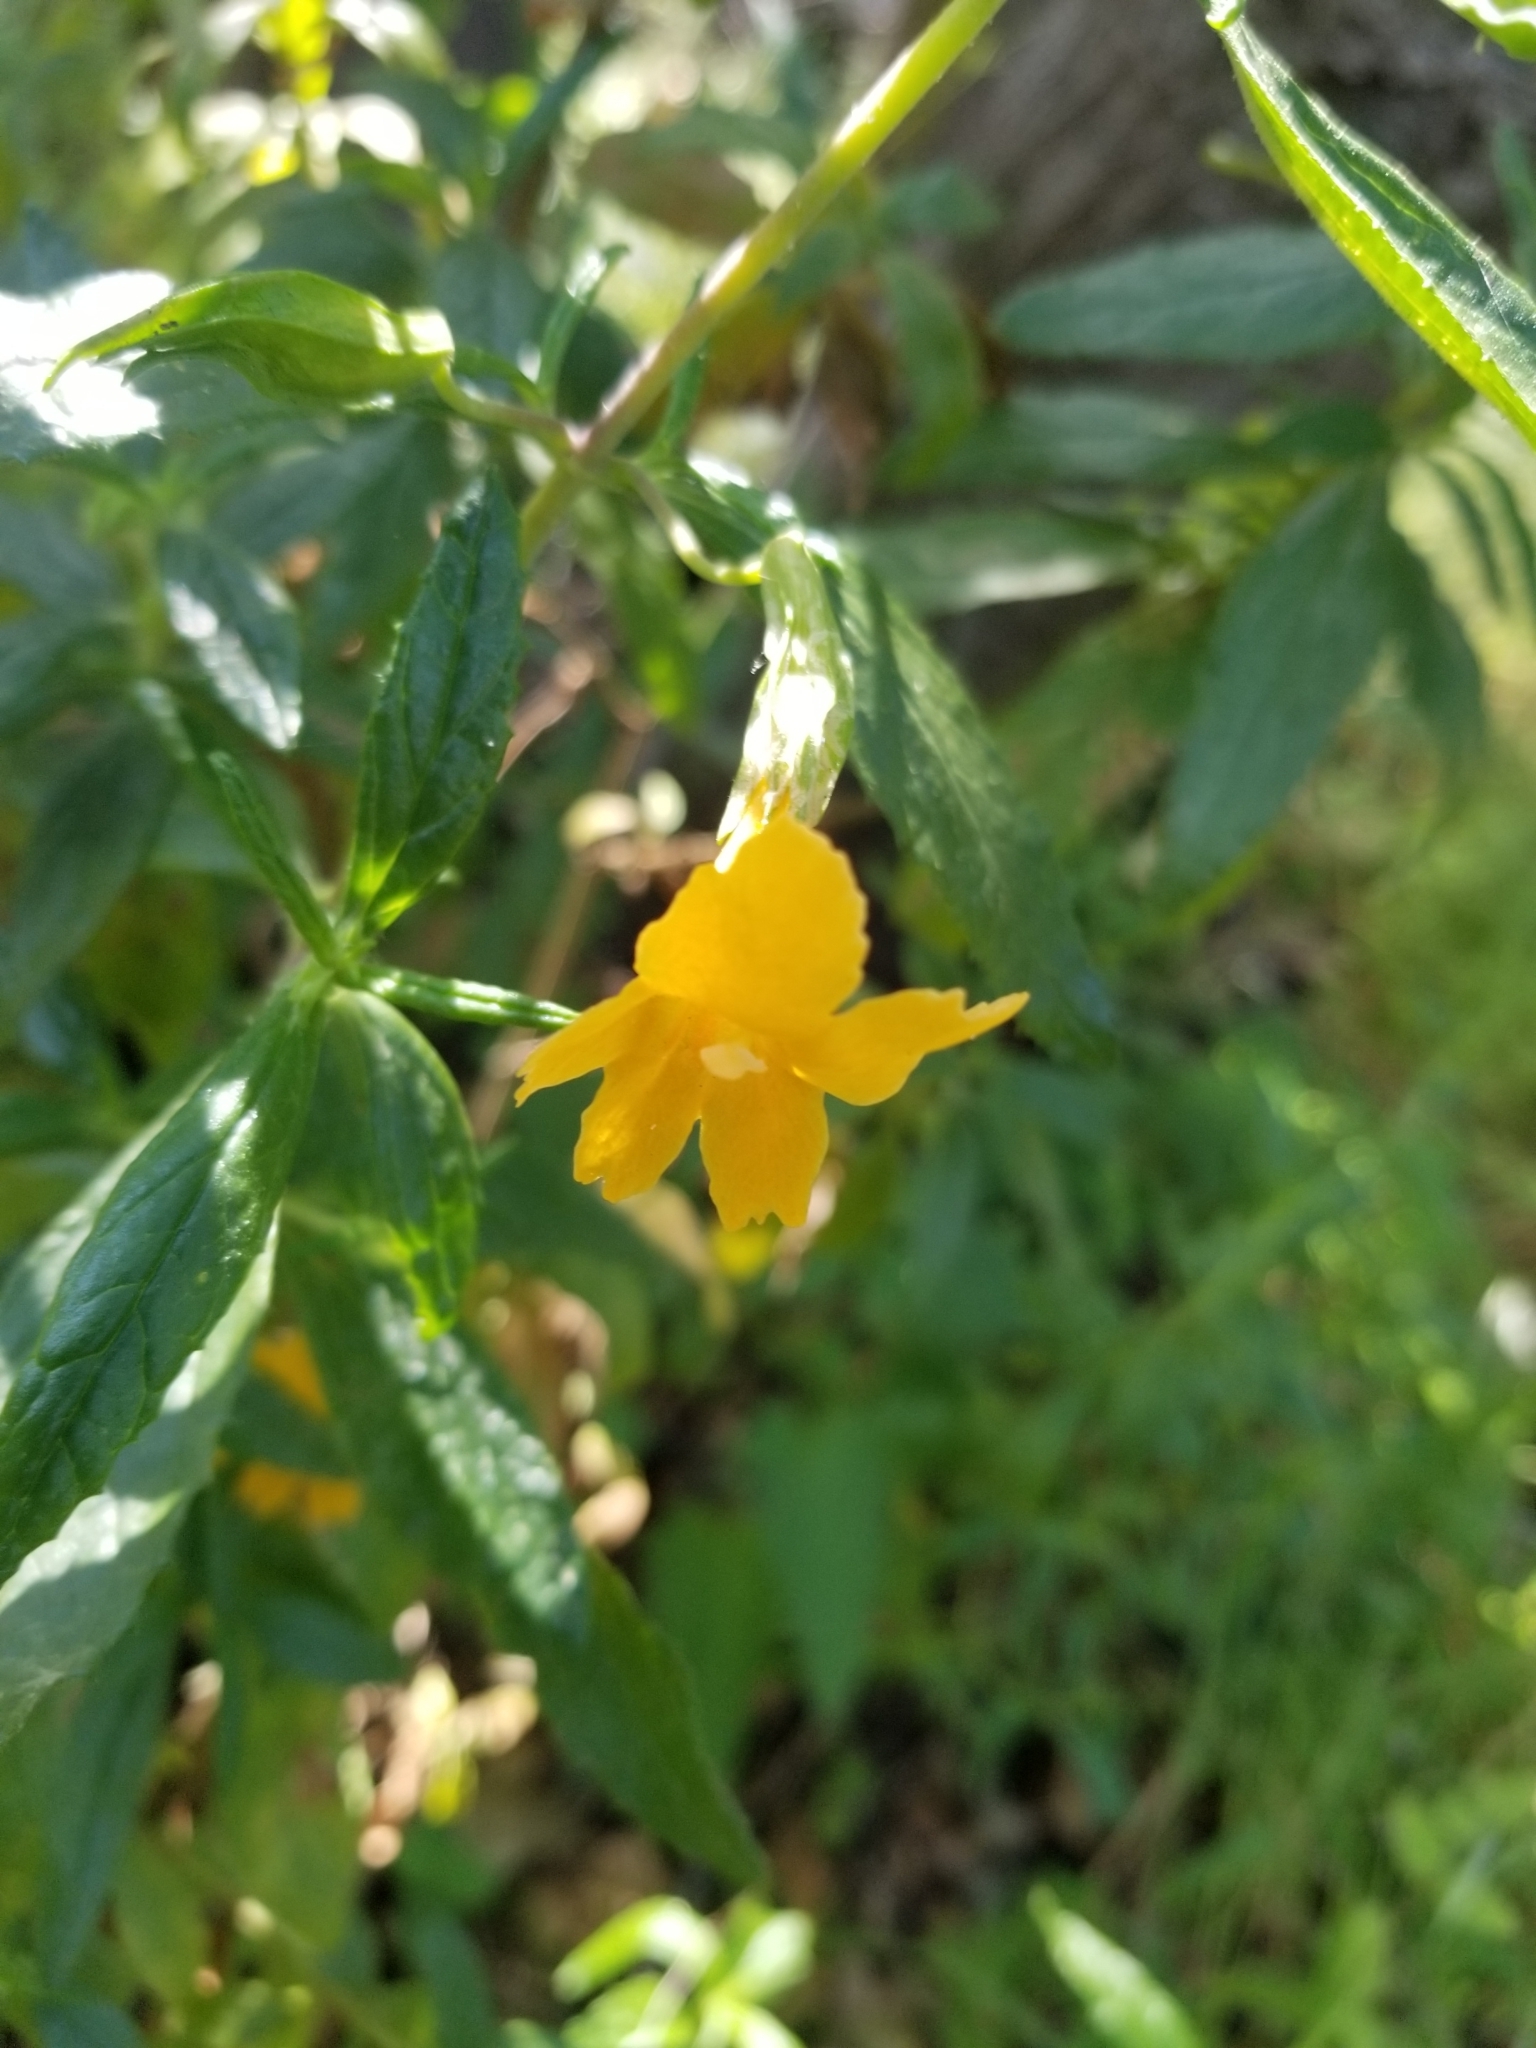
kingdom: Plantae
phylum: Tracheophyta
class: Magnoliopsida
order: Lamiales
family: Phrymaceae
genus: Diplacus
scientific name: Diplacus aurantiacus
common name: Bush monkey-flower
